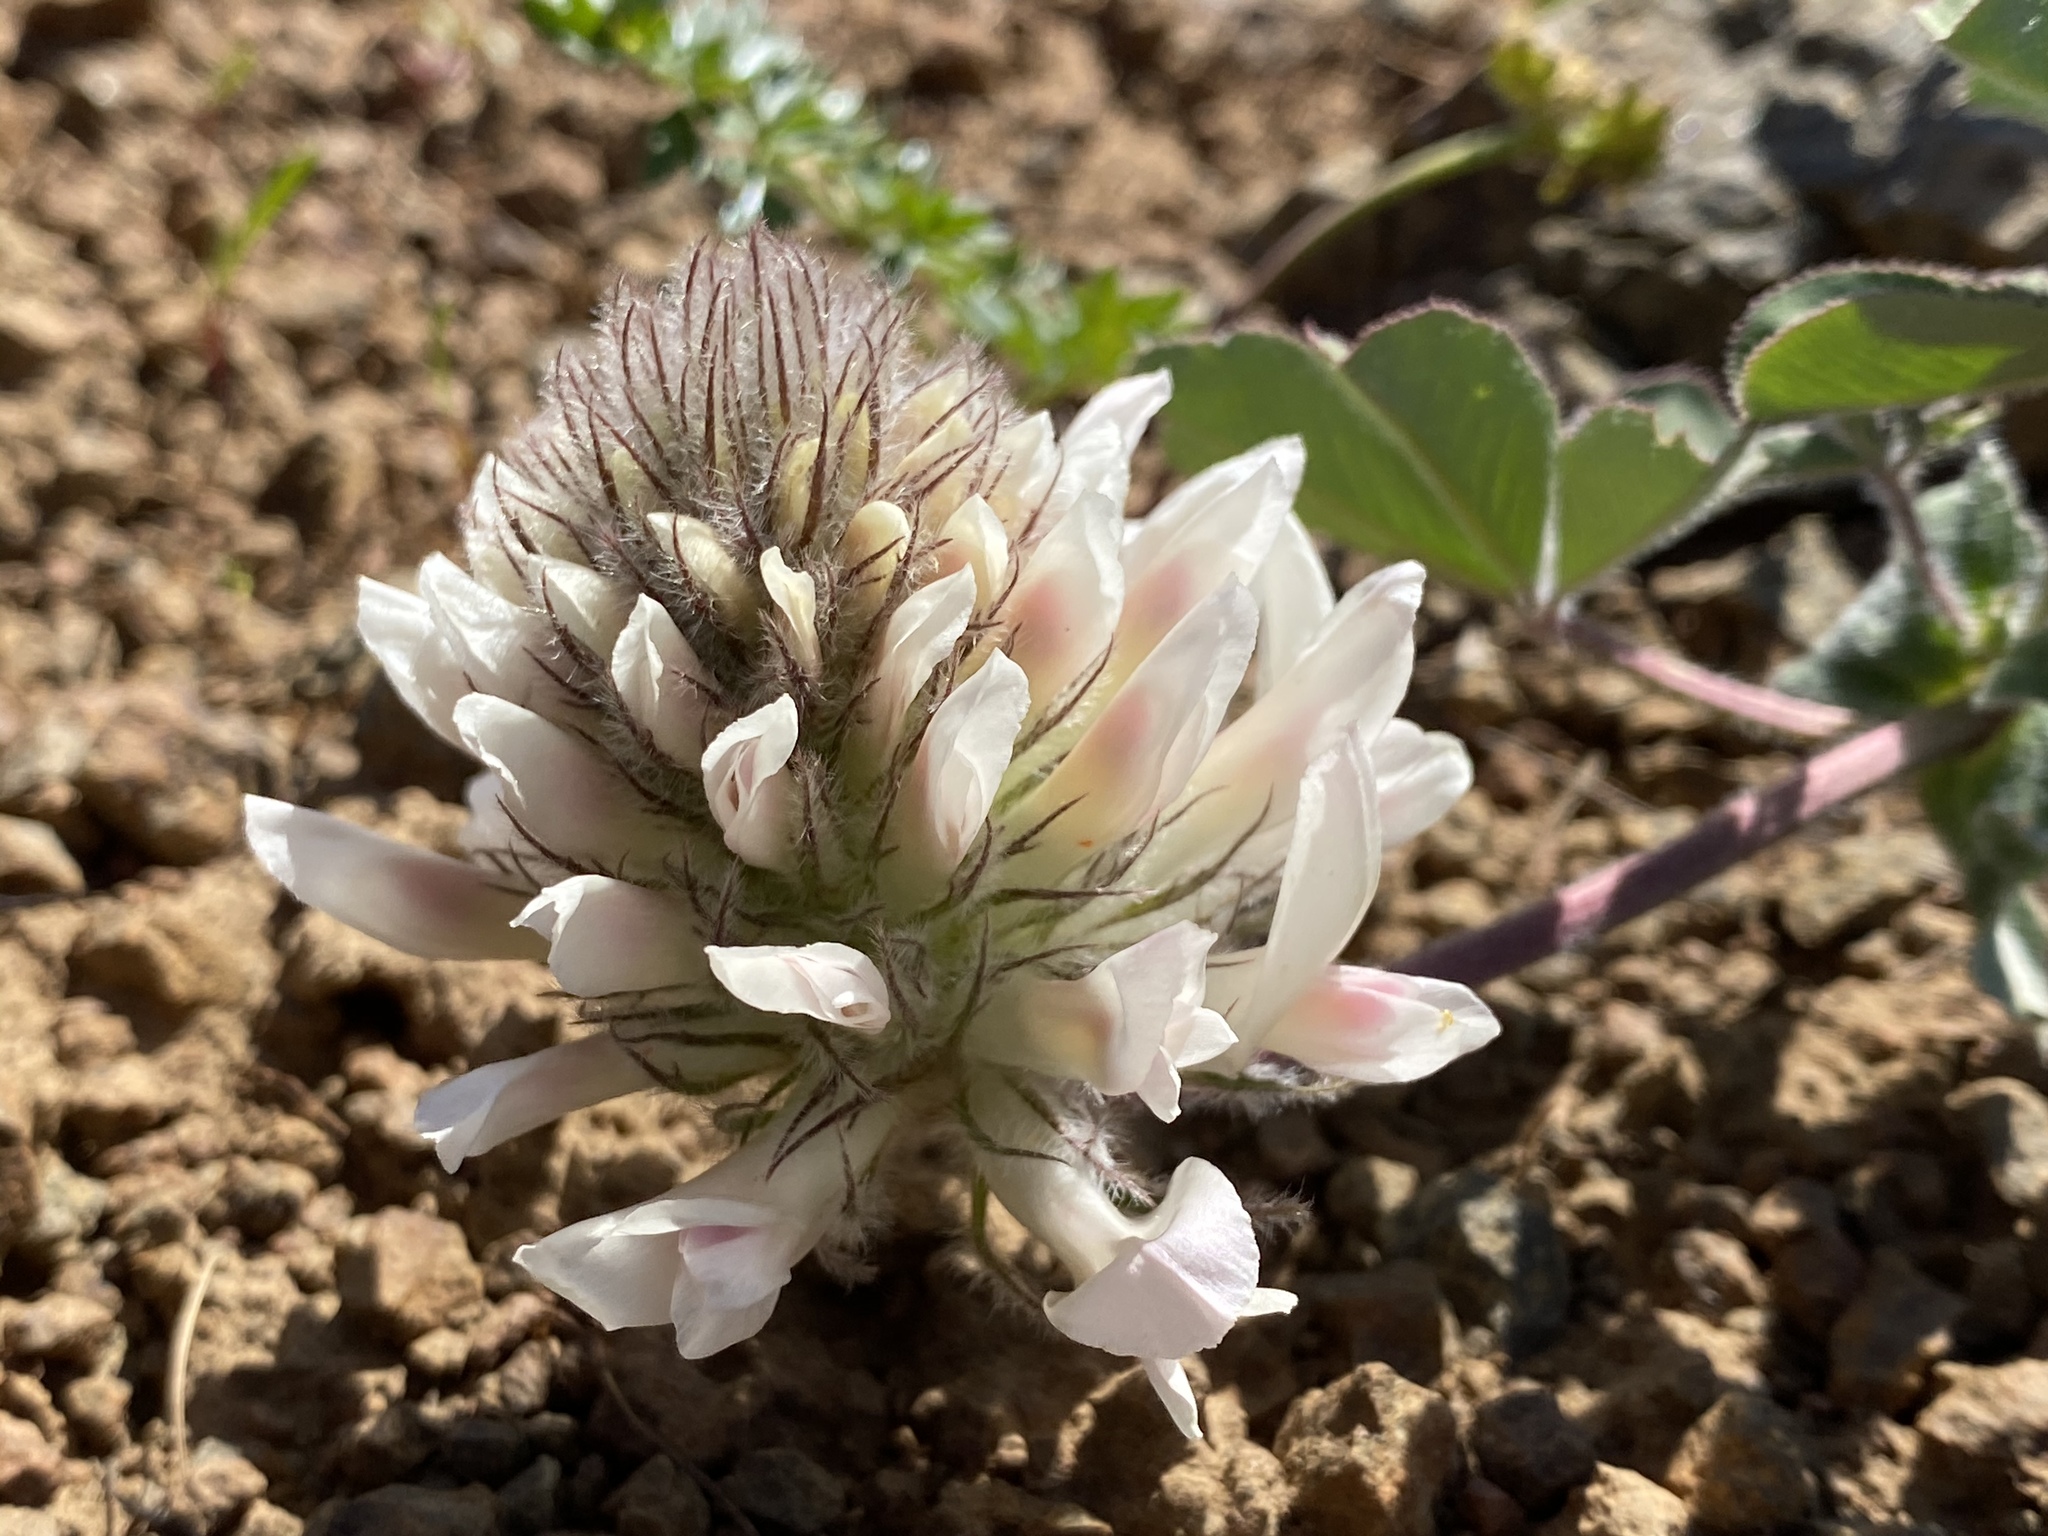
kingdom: Plantae
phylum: Tracheophyta
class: Magnoliopsida
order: Fabales
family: Fabaceae
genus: Trifolium
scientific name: Trifolium macrocephalum
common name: Large-head clover
